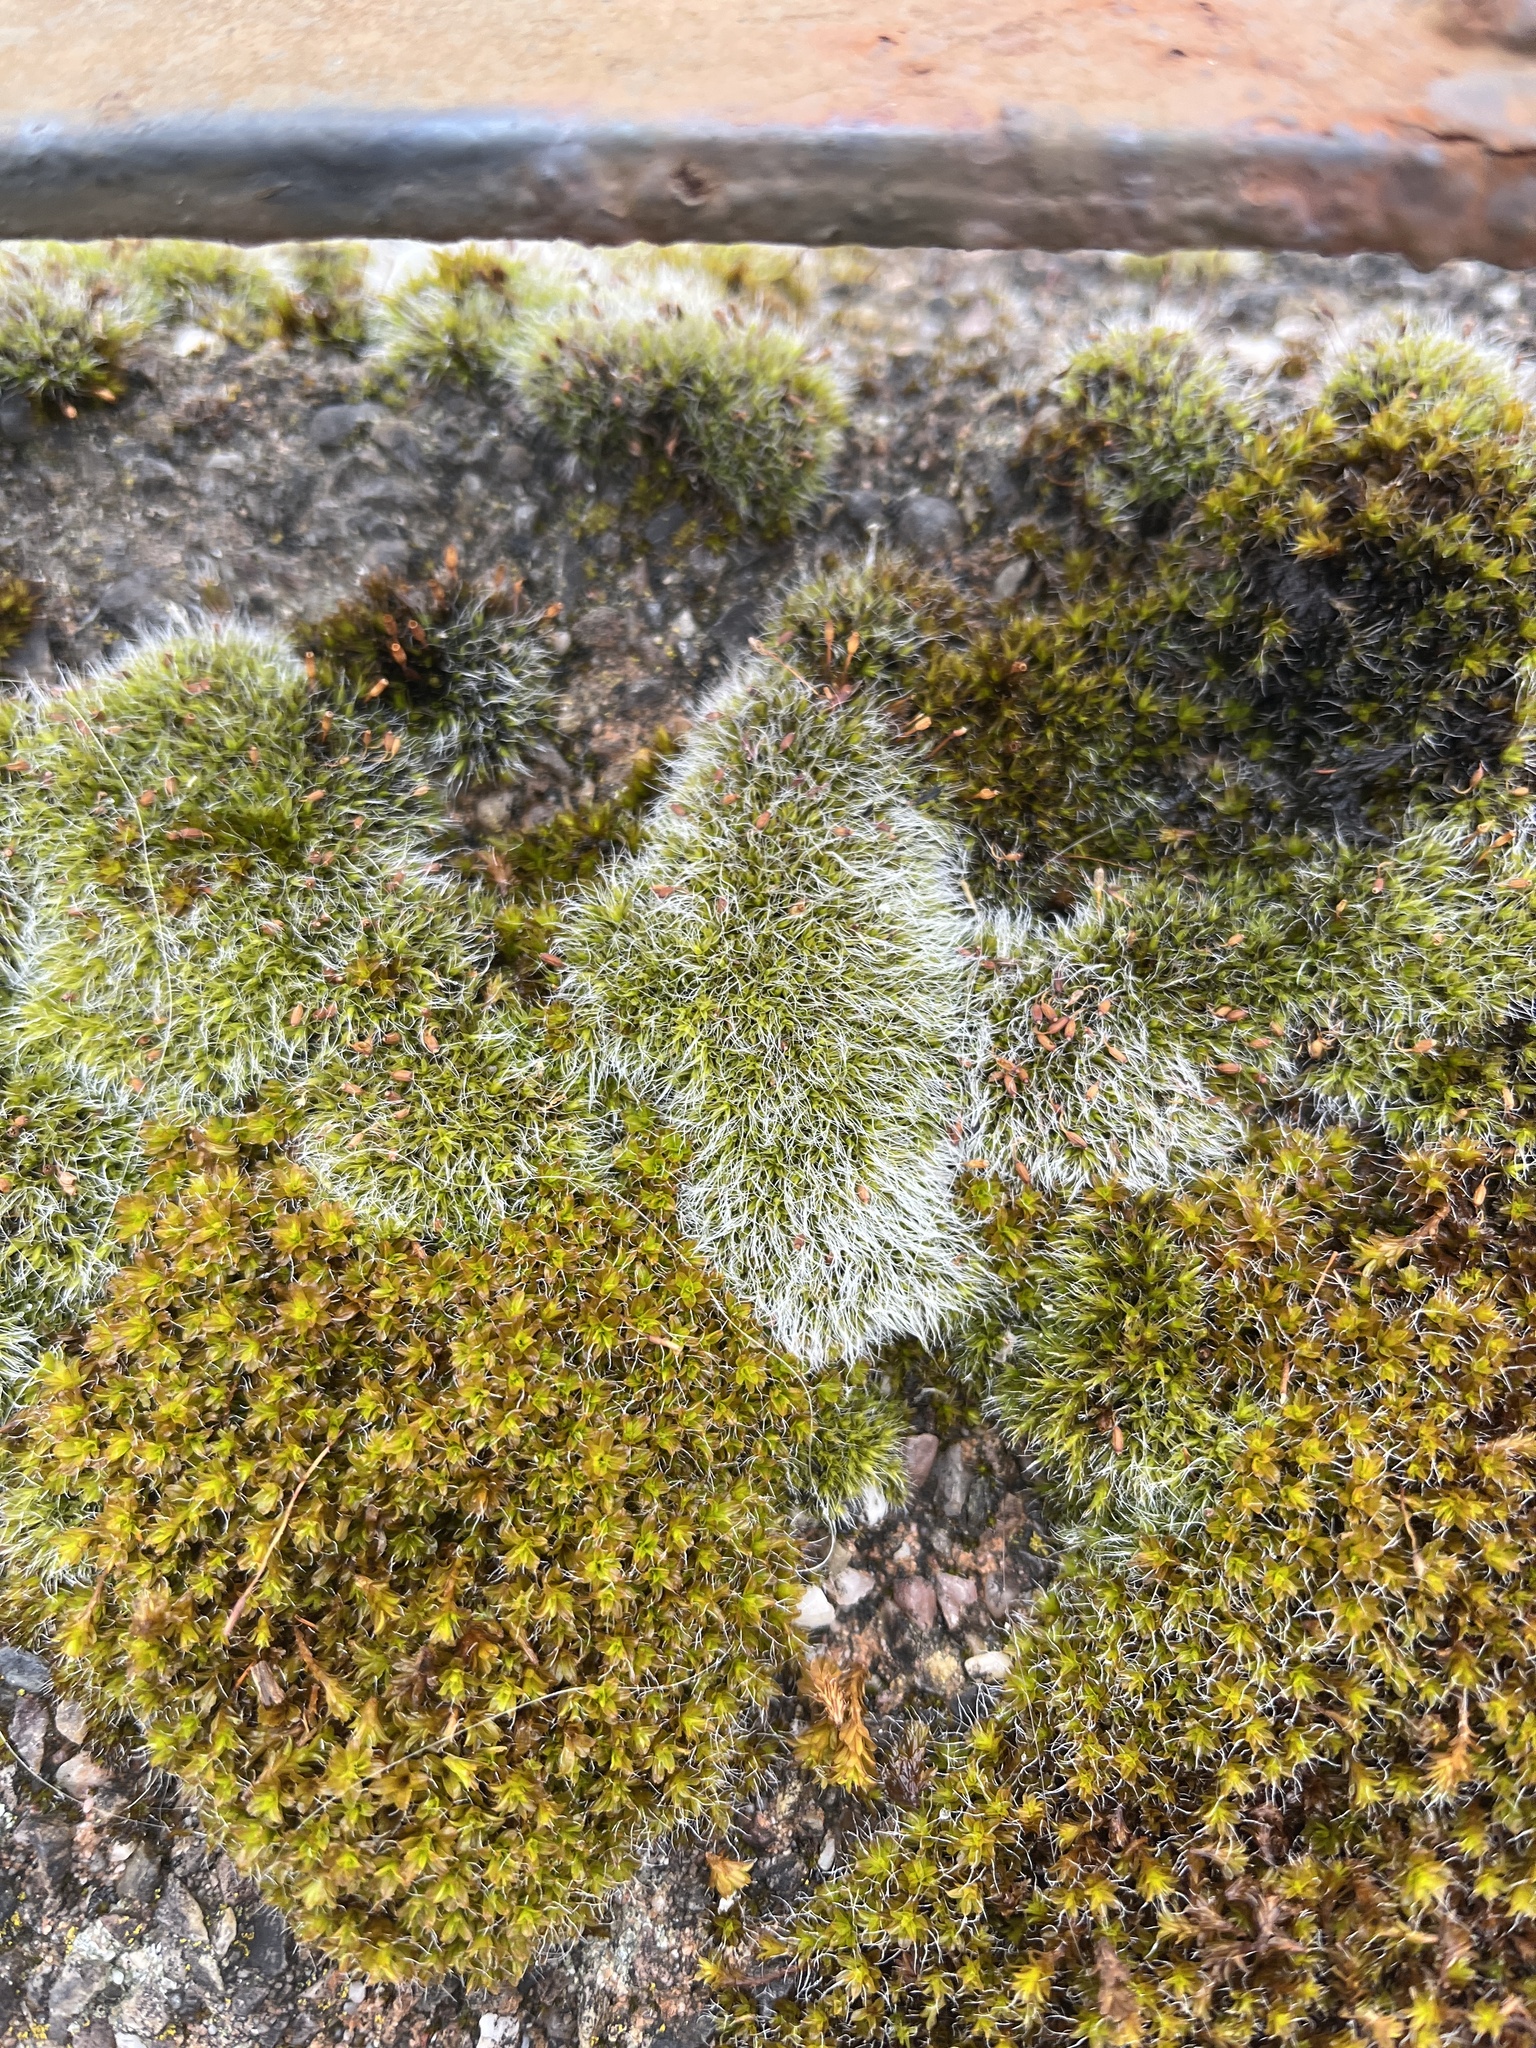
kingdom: Plantae
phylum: Bryophyta
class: Bryopsida
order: Grimmiales
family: Grimmiaceae
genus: Grimmia
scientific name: Grimmia pulvinata
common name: Grey-cushioned grimmia
